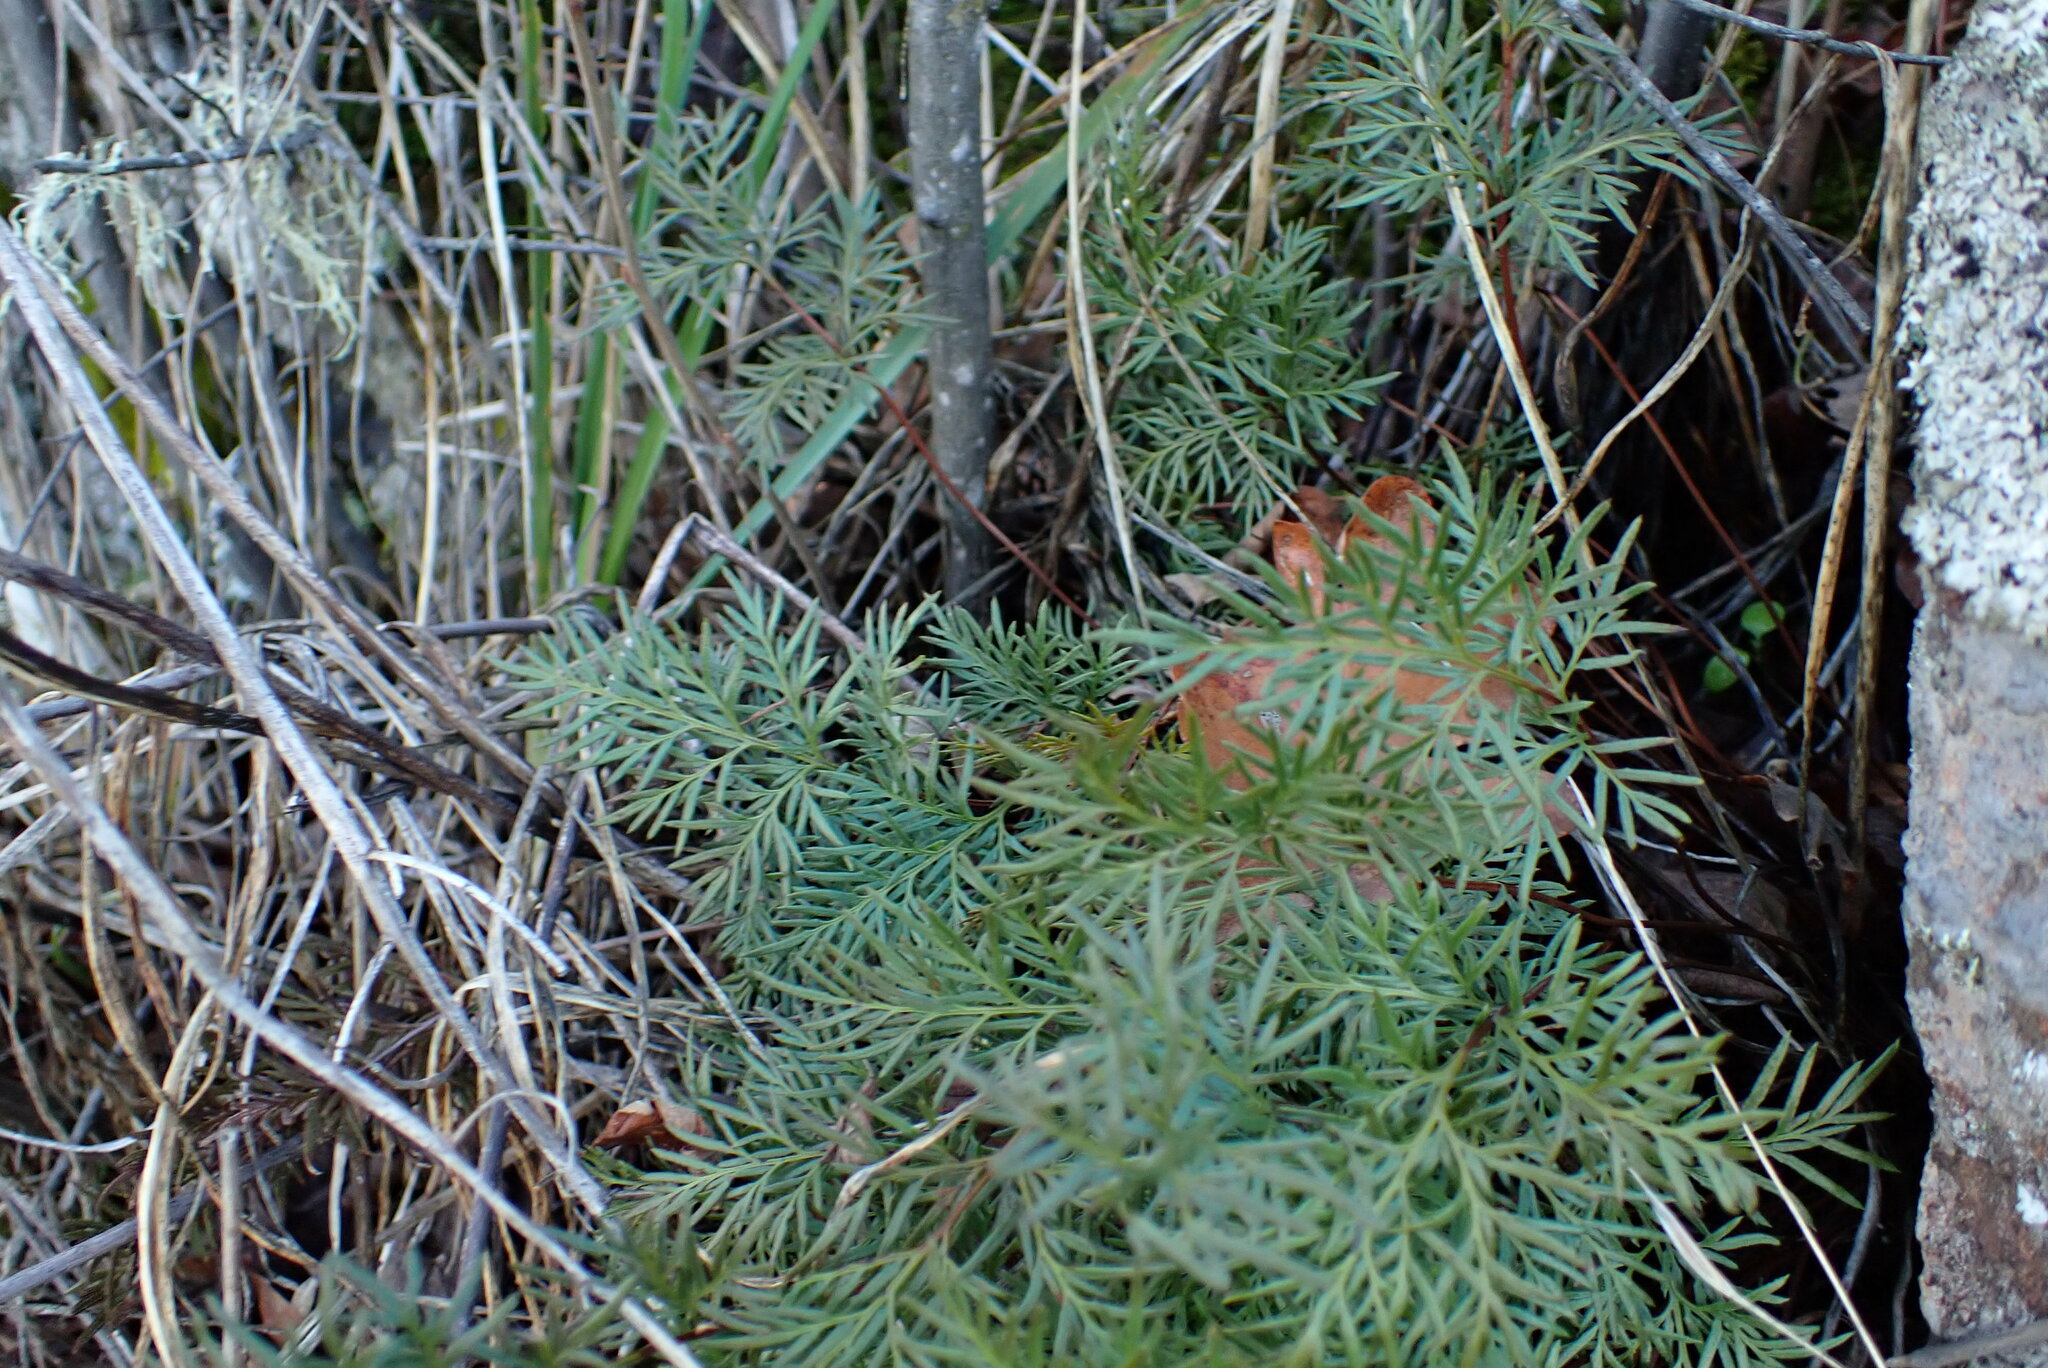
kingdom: Plantae
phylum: Tracheophyta
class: Polypodiopsida
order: Polypodiales
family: Pteridaceae
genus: Aspidotis
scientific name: Aspidotis densa
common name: Indian's dream
